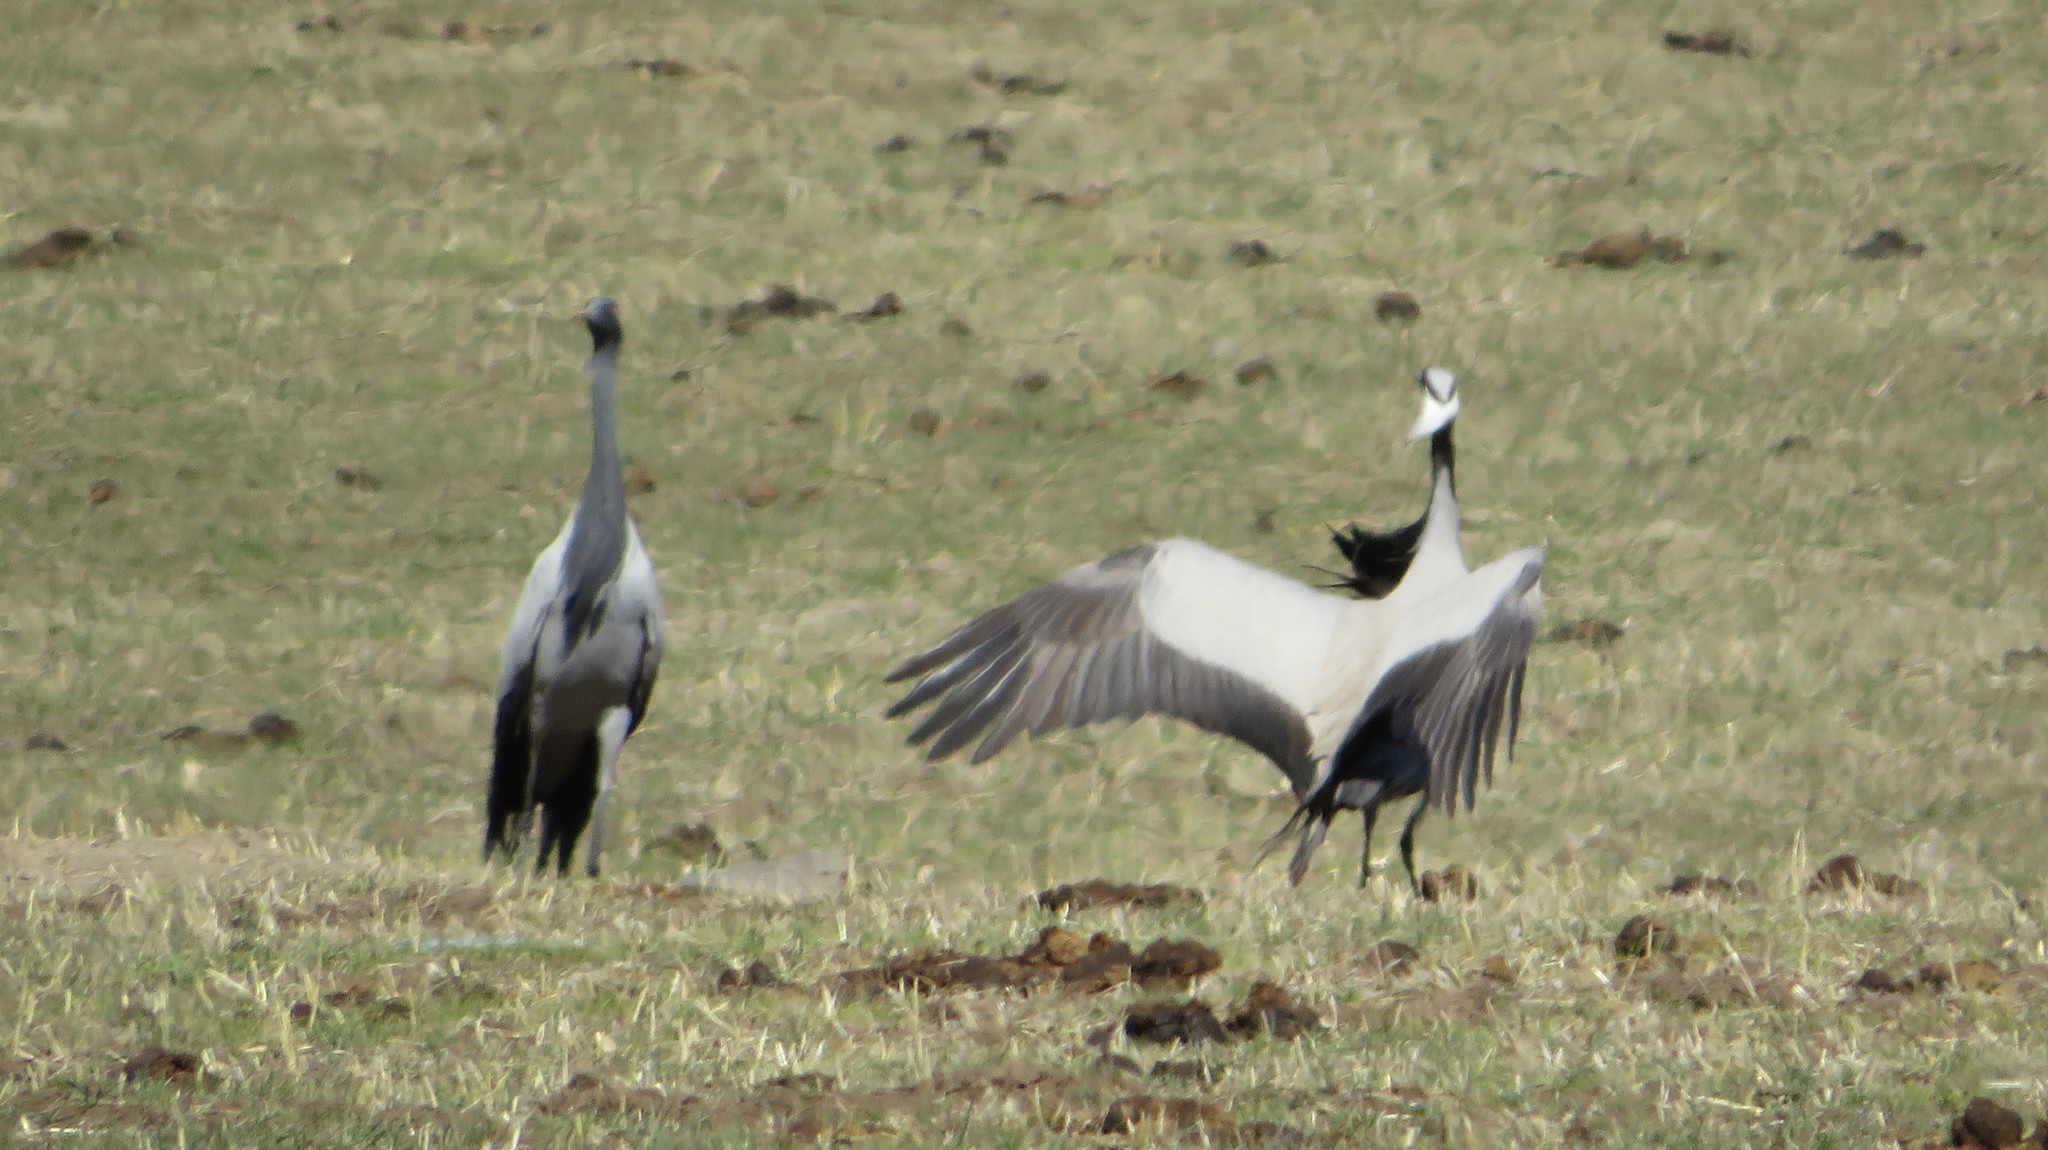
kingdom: Animalia
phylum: Chordata
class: Aves
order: Gruiformes
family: Gruidae
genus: Anthropoides
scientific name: Anthropoides virgo
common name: Demoiselle crane
